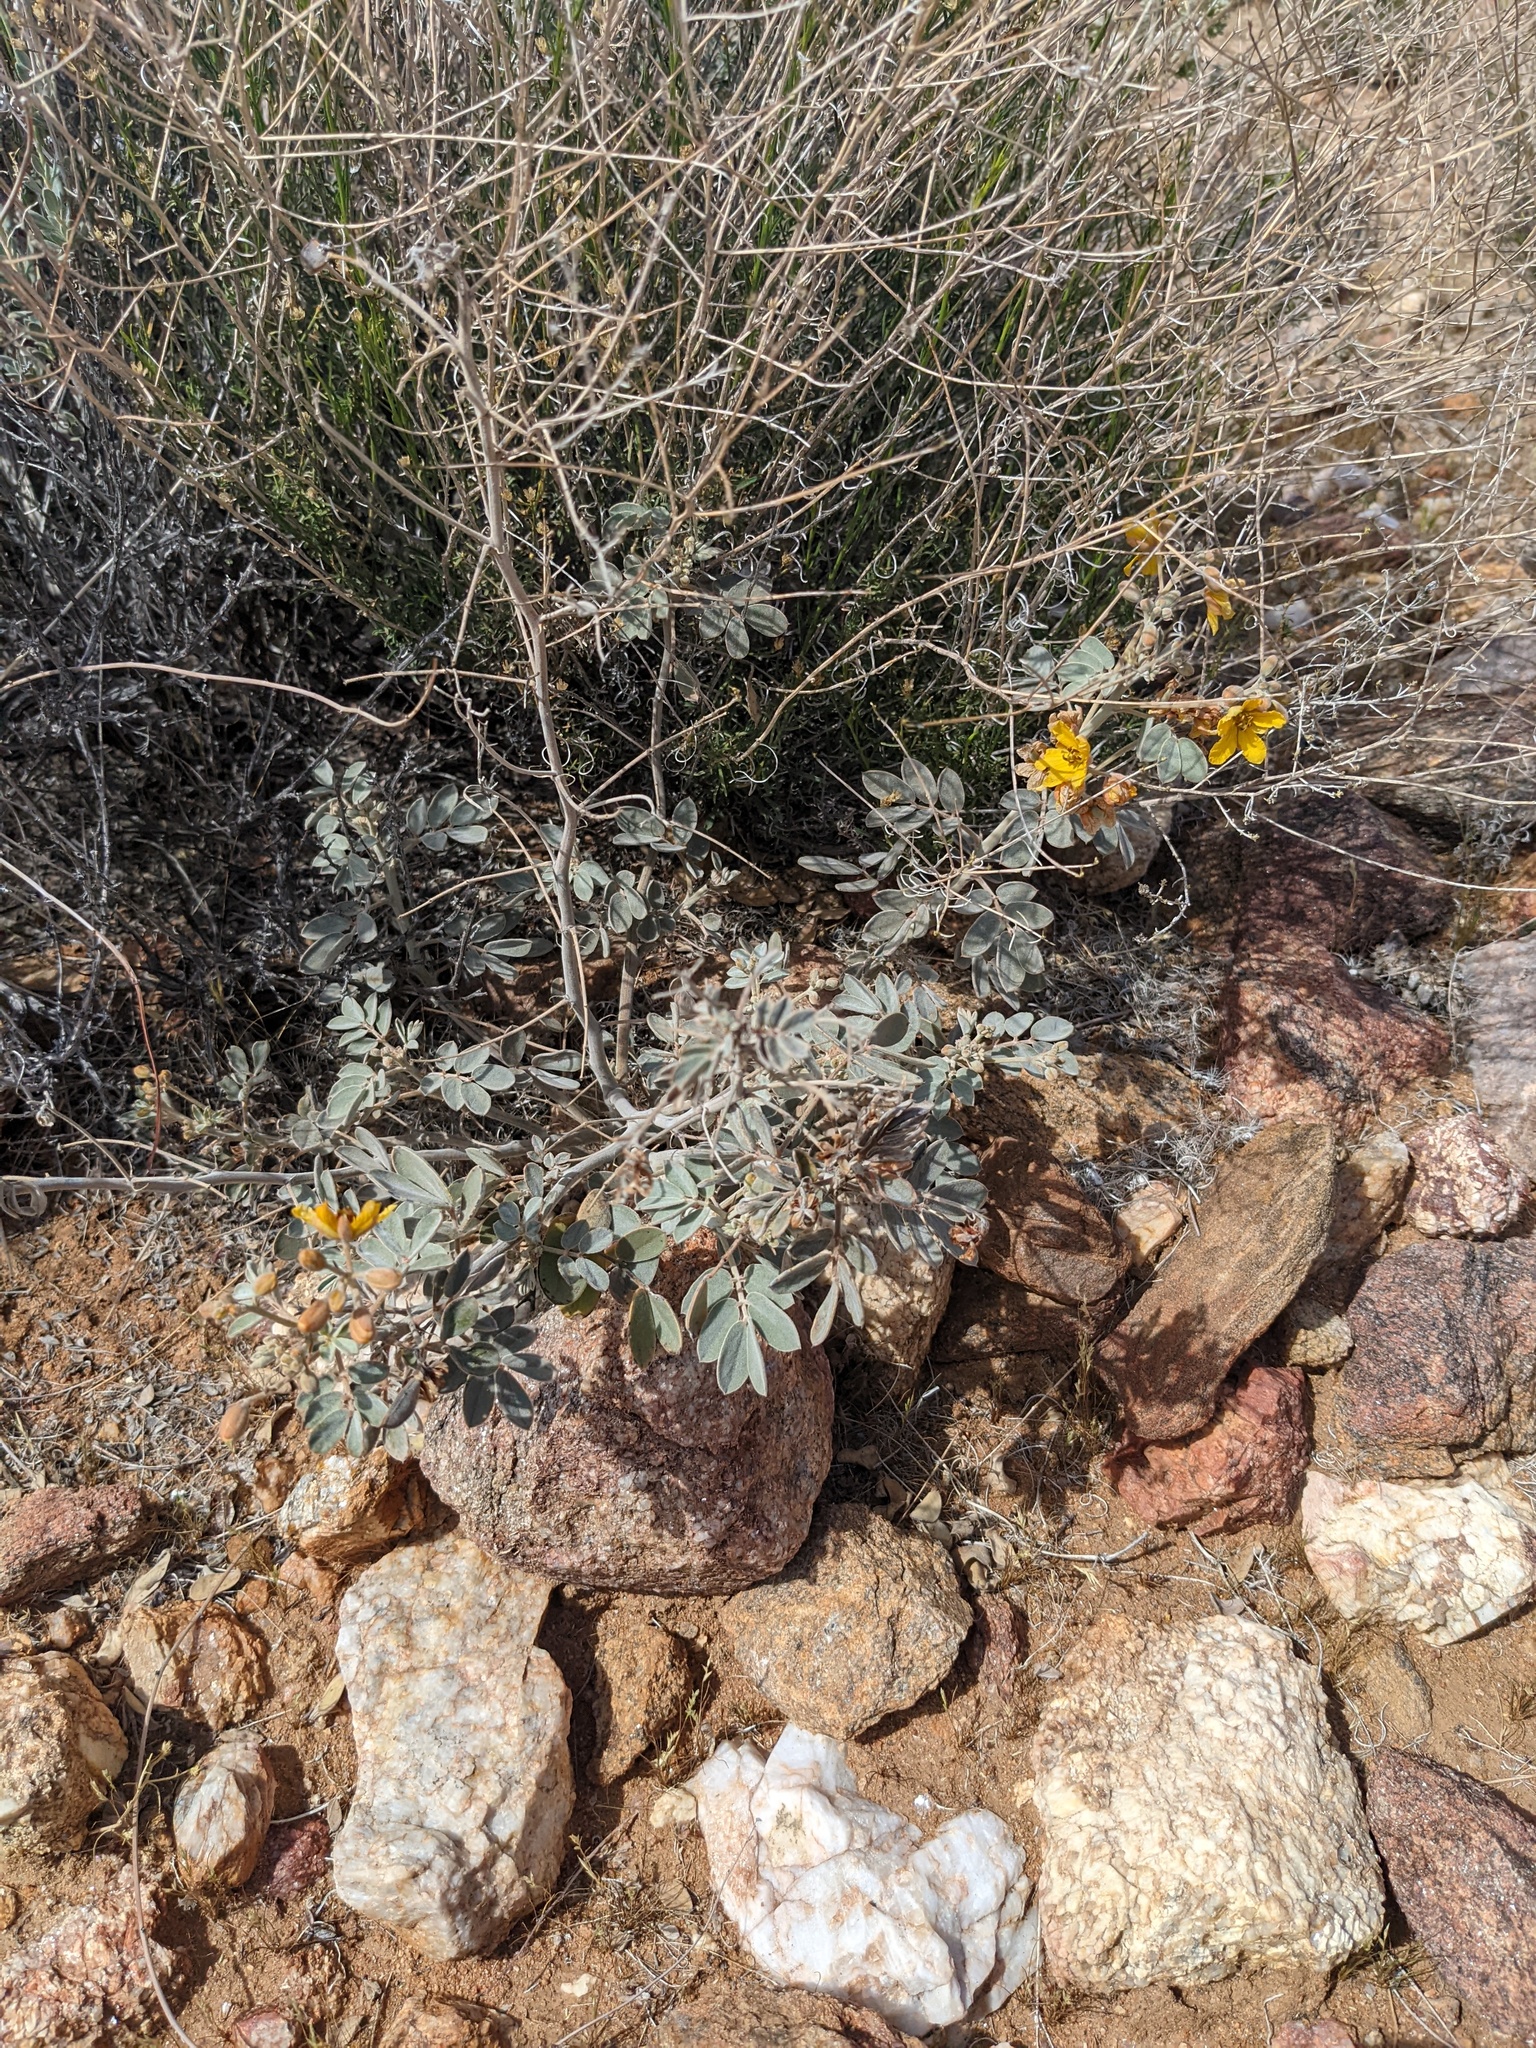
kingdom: Plantae
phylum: Tracheophyta
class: Magnoliopsida
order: Fabales
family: Fabaceae
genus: Senna
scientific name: Senna covesii
